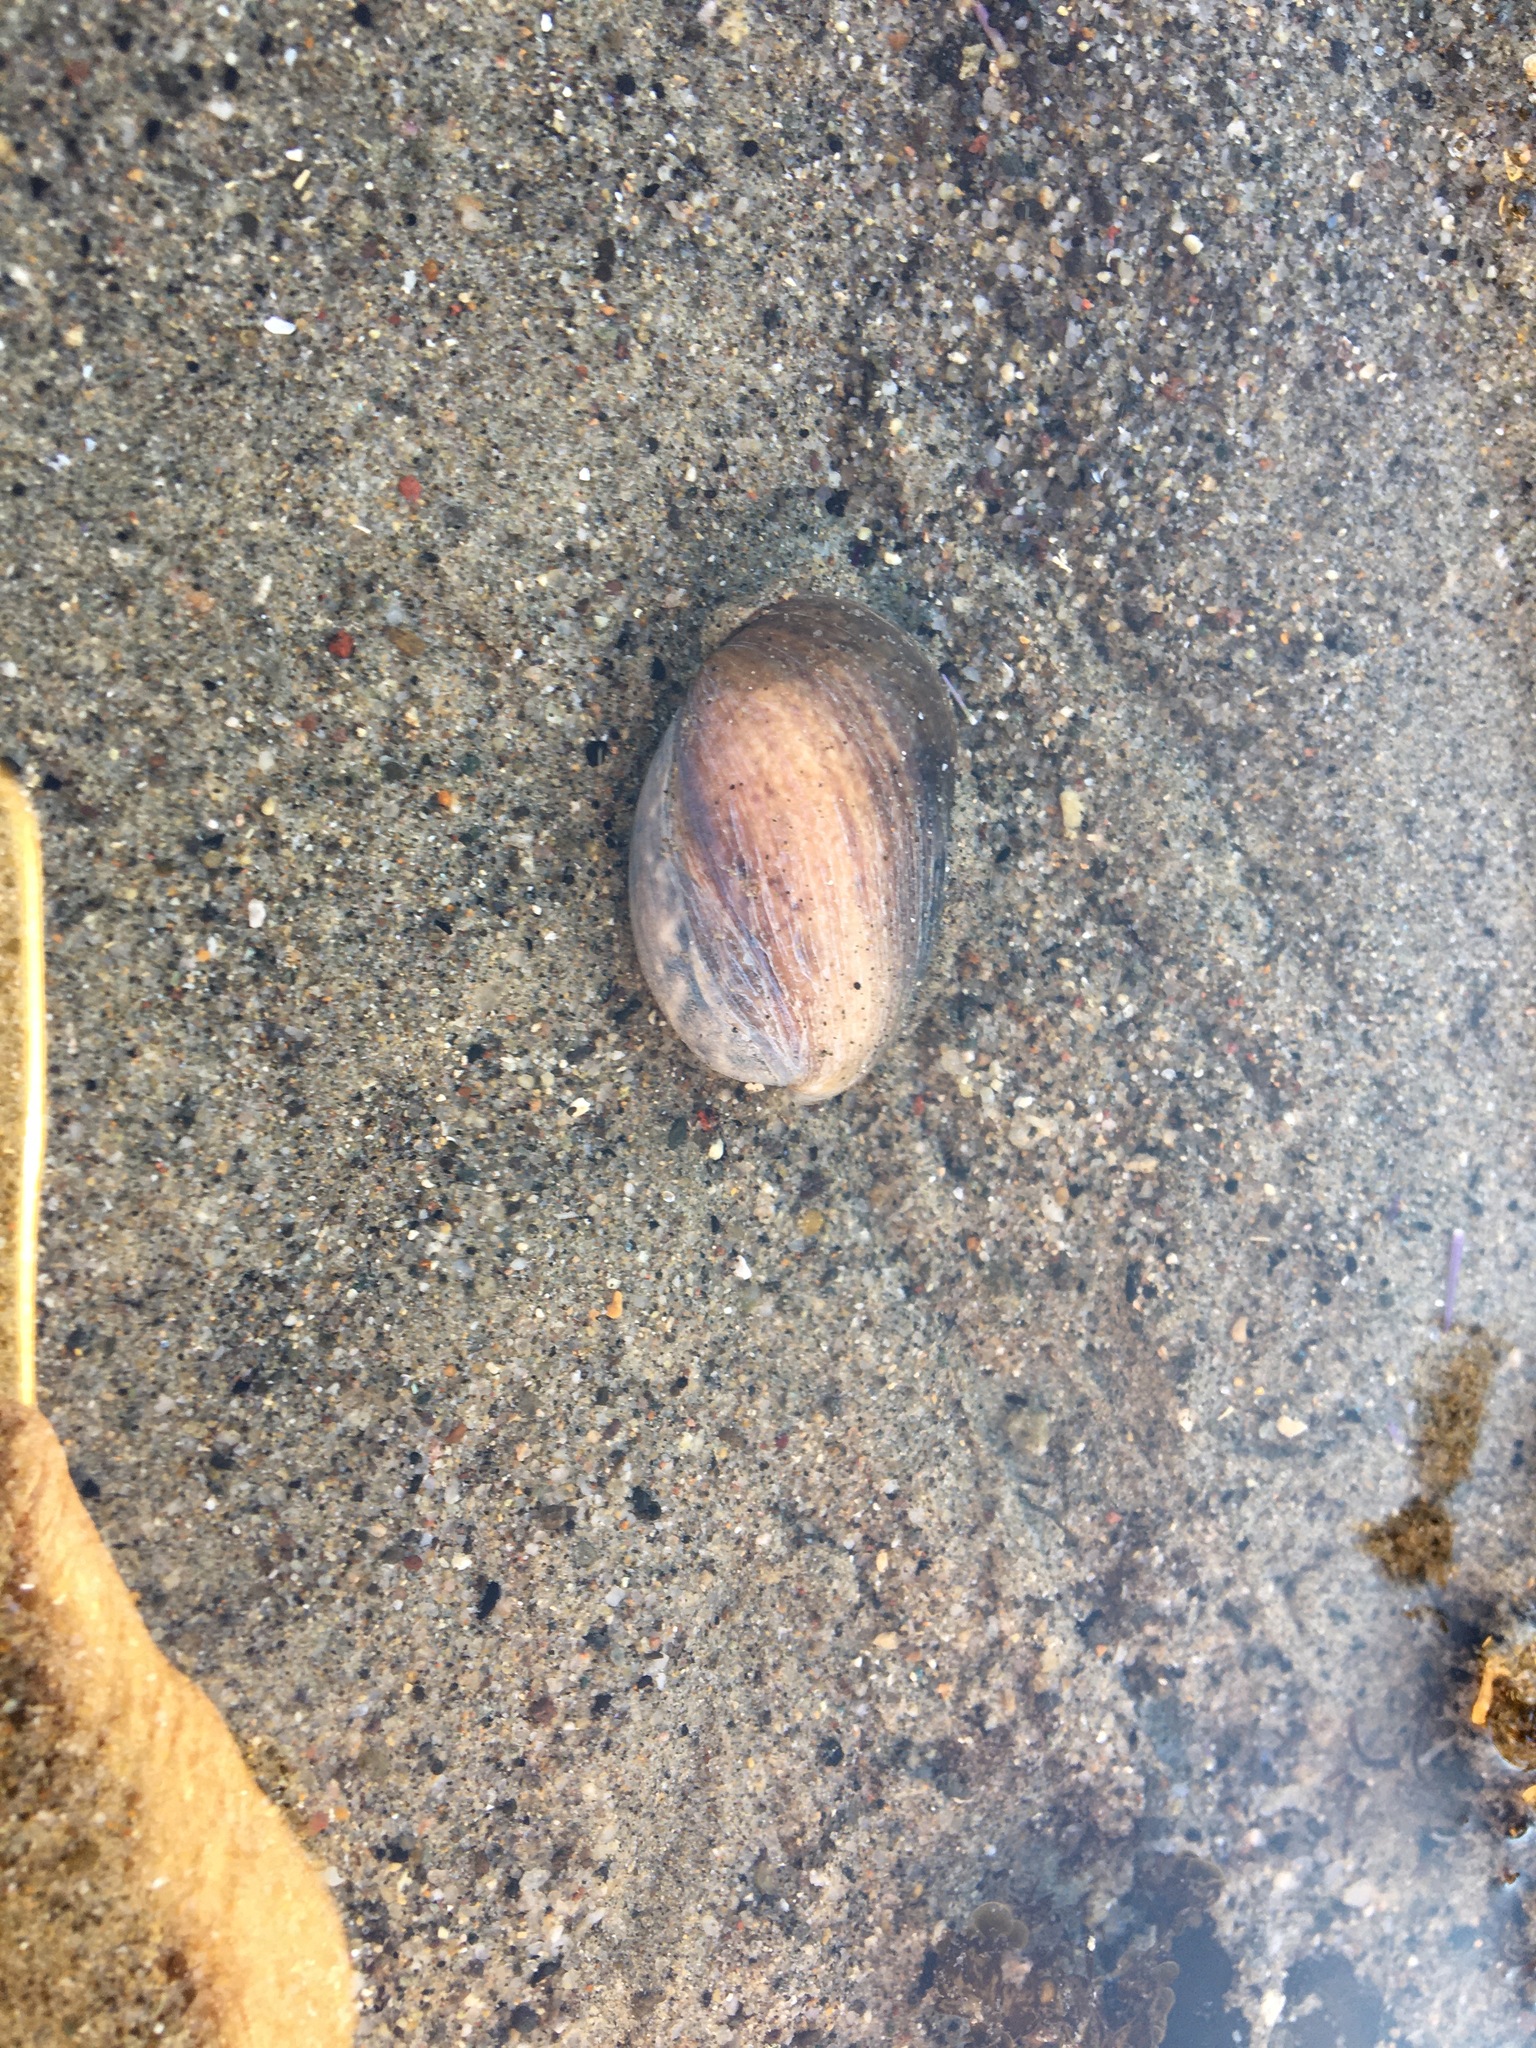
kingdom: Animalia
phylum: Mollusca
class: Gastropoda
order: Cephalaspidea
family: Bullidae
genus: Bulla
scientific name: Bulla gouldiana
